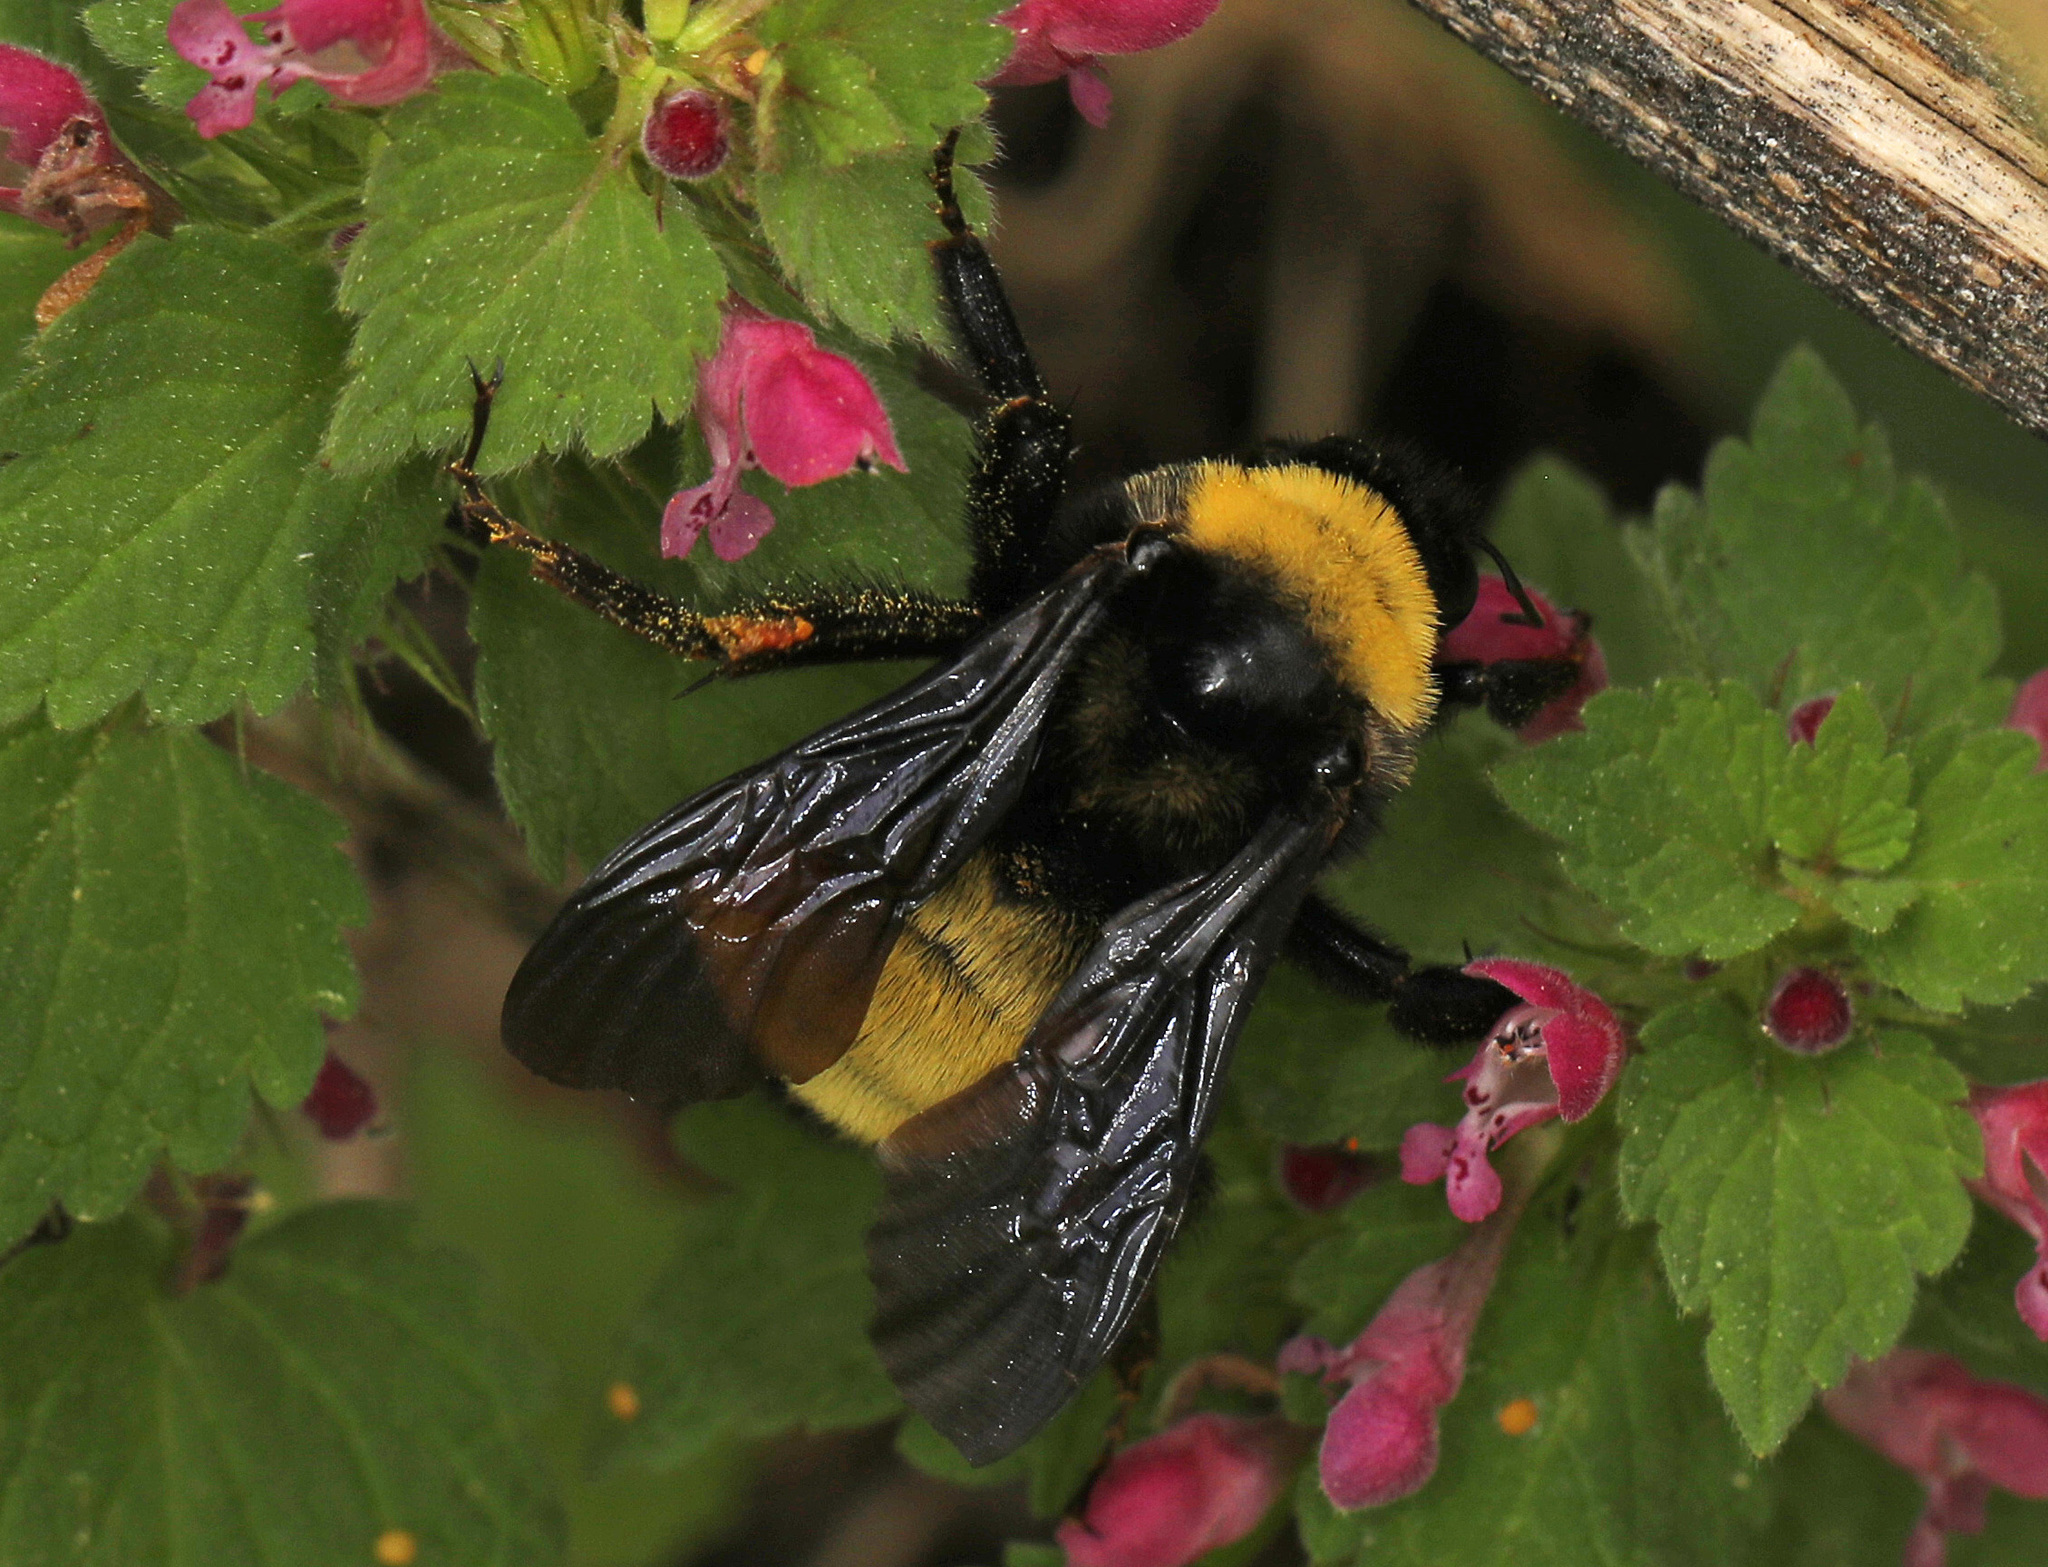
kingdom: Animalia
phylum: Arthropoda
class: Insecta
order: Hymenoptera
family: Apidae
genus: Bombus
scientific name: Bombus pensylvanicus
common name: Bumble bee
